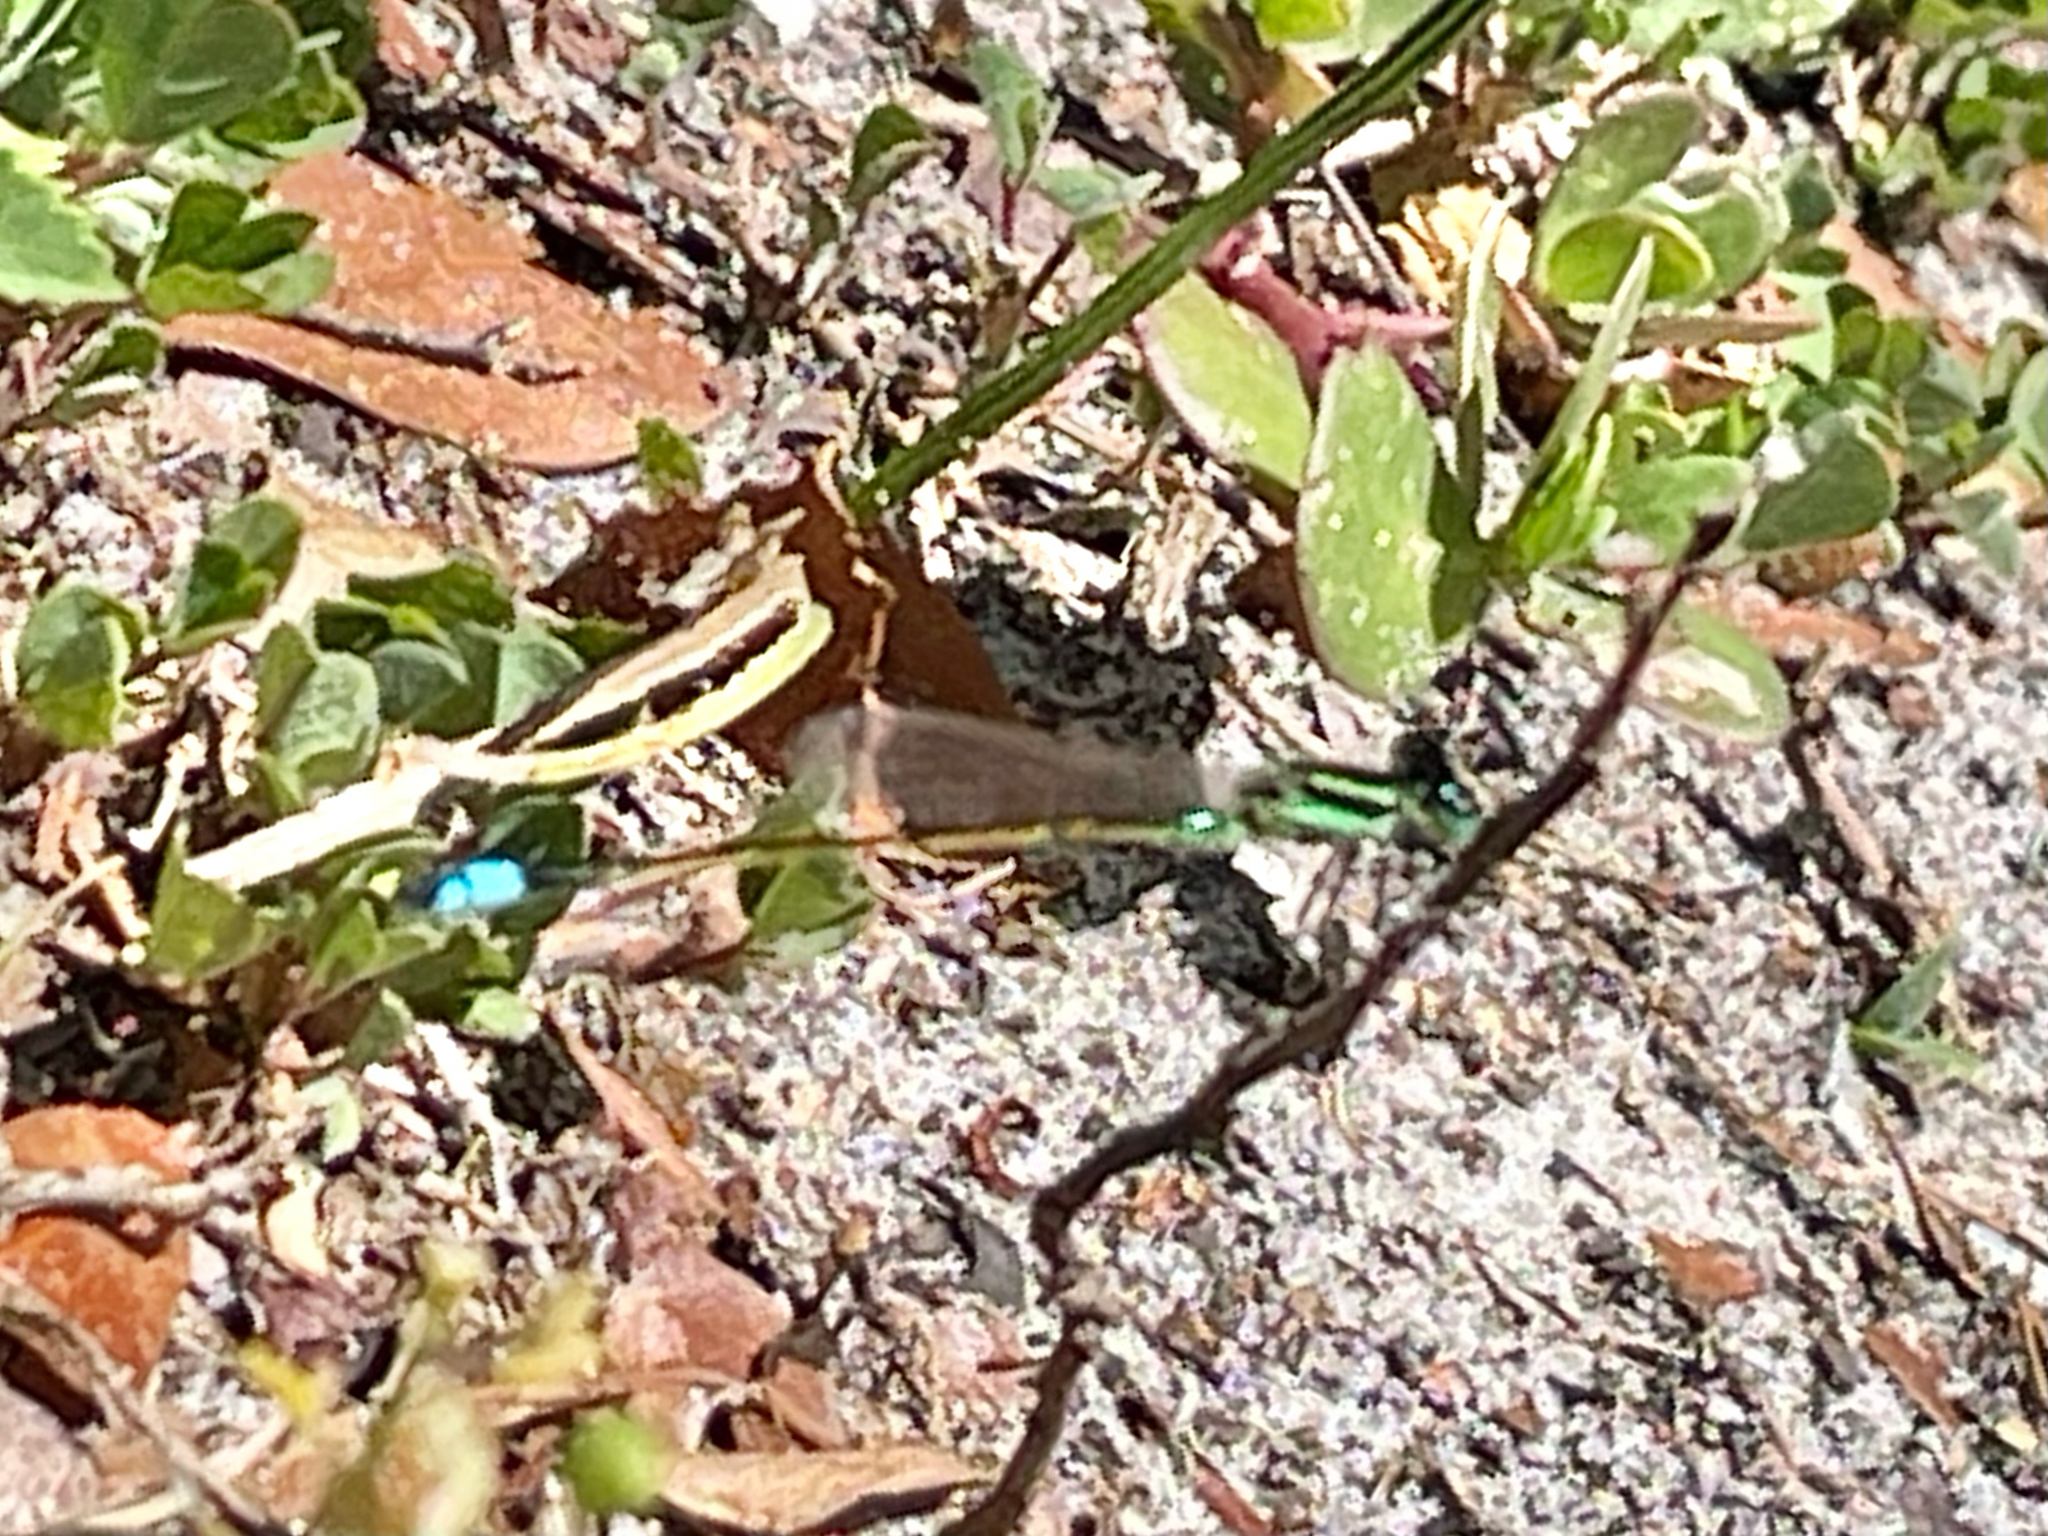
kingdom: Animalia
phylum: Arthropoda
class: Insecta
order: Odonata
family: Coenagrionidae
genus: Ischnura
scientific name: Ischnura ramburii
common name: Rambur's forktail
